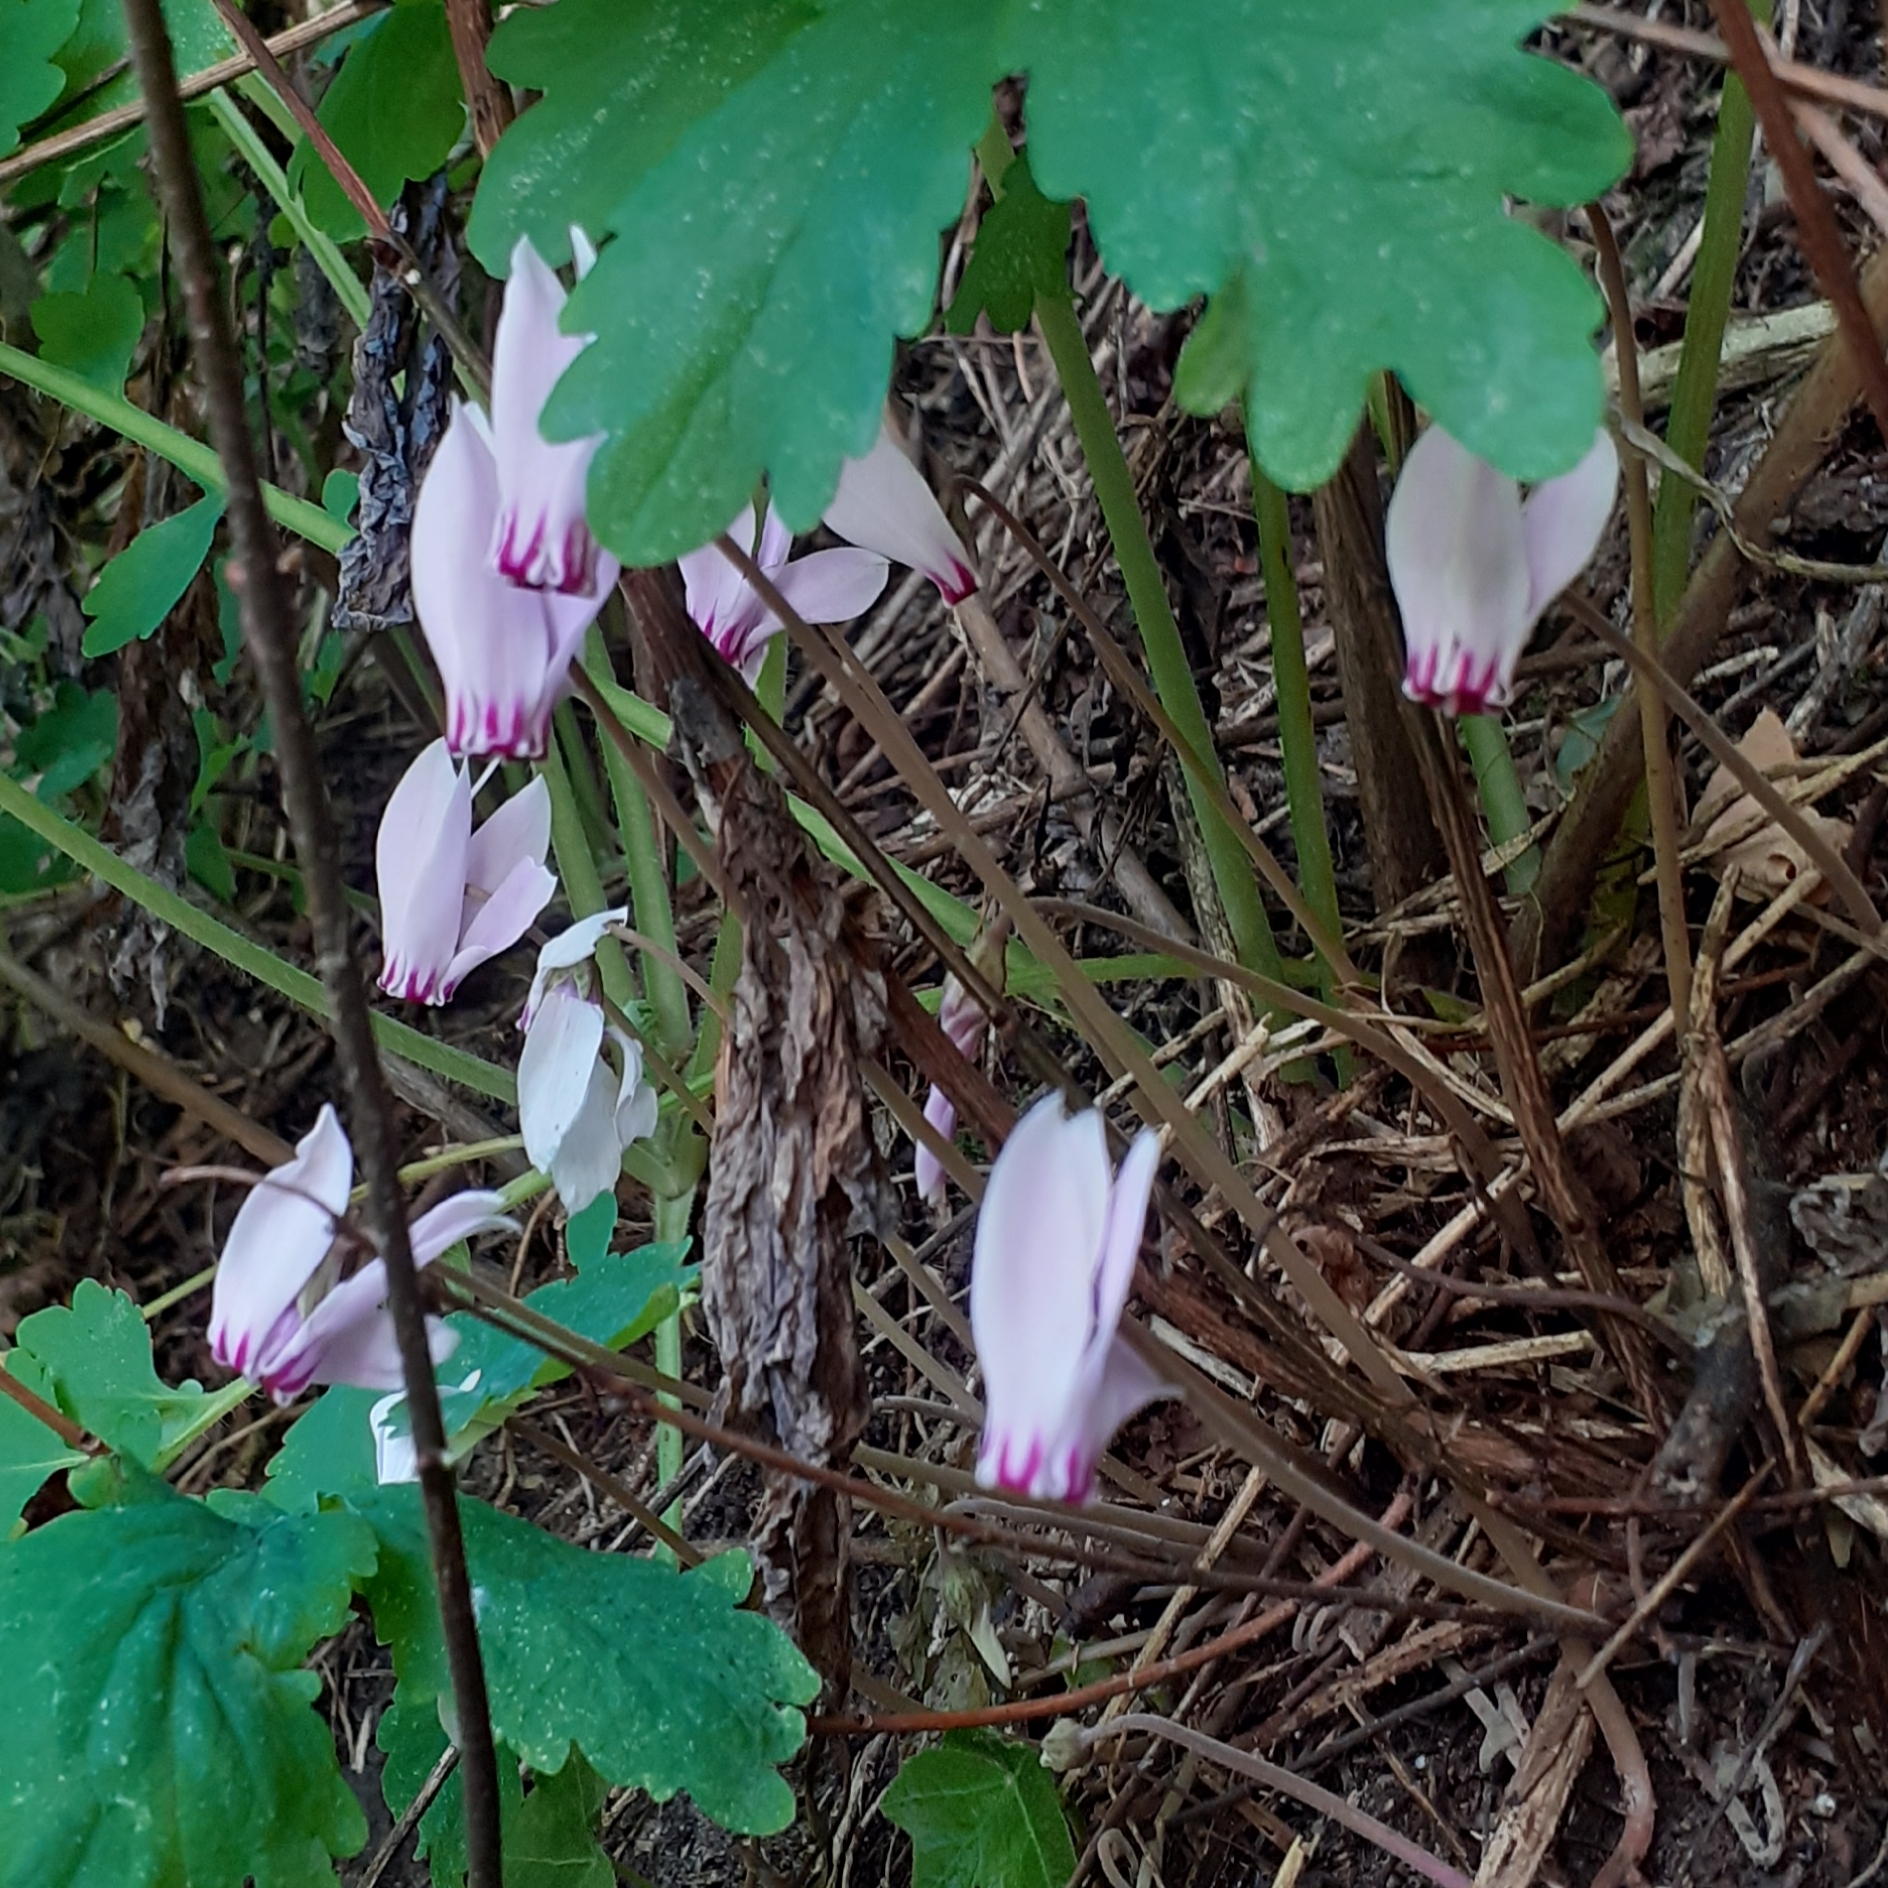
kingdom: Plantae
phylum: Tracheophyta
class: Magnoliopsida
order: Ericales
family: Primulaceae
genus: Cyclamen
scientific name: Cyclamen hederifolium
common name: Sowbread
